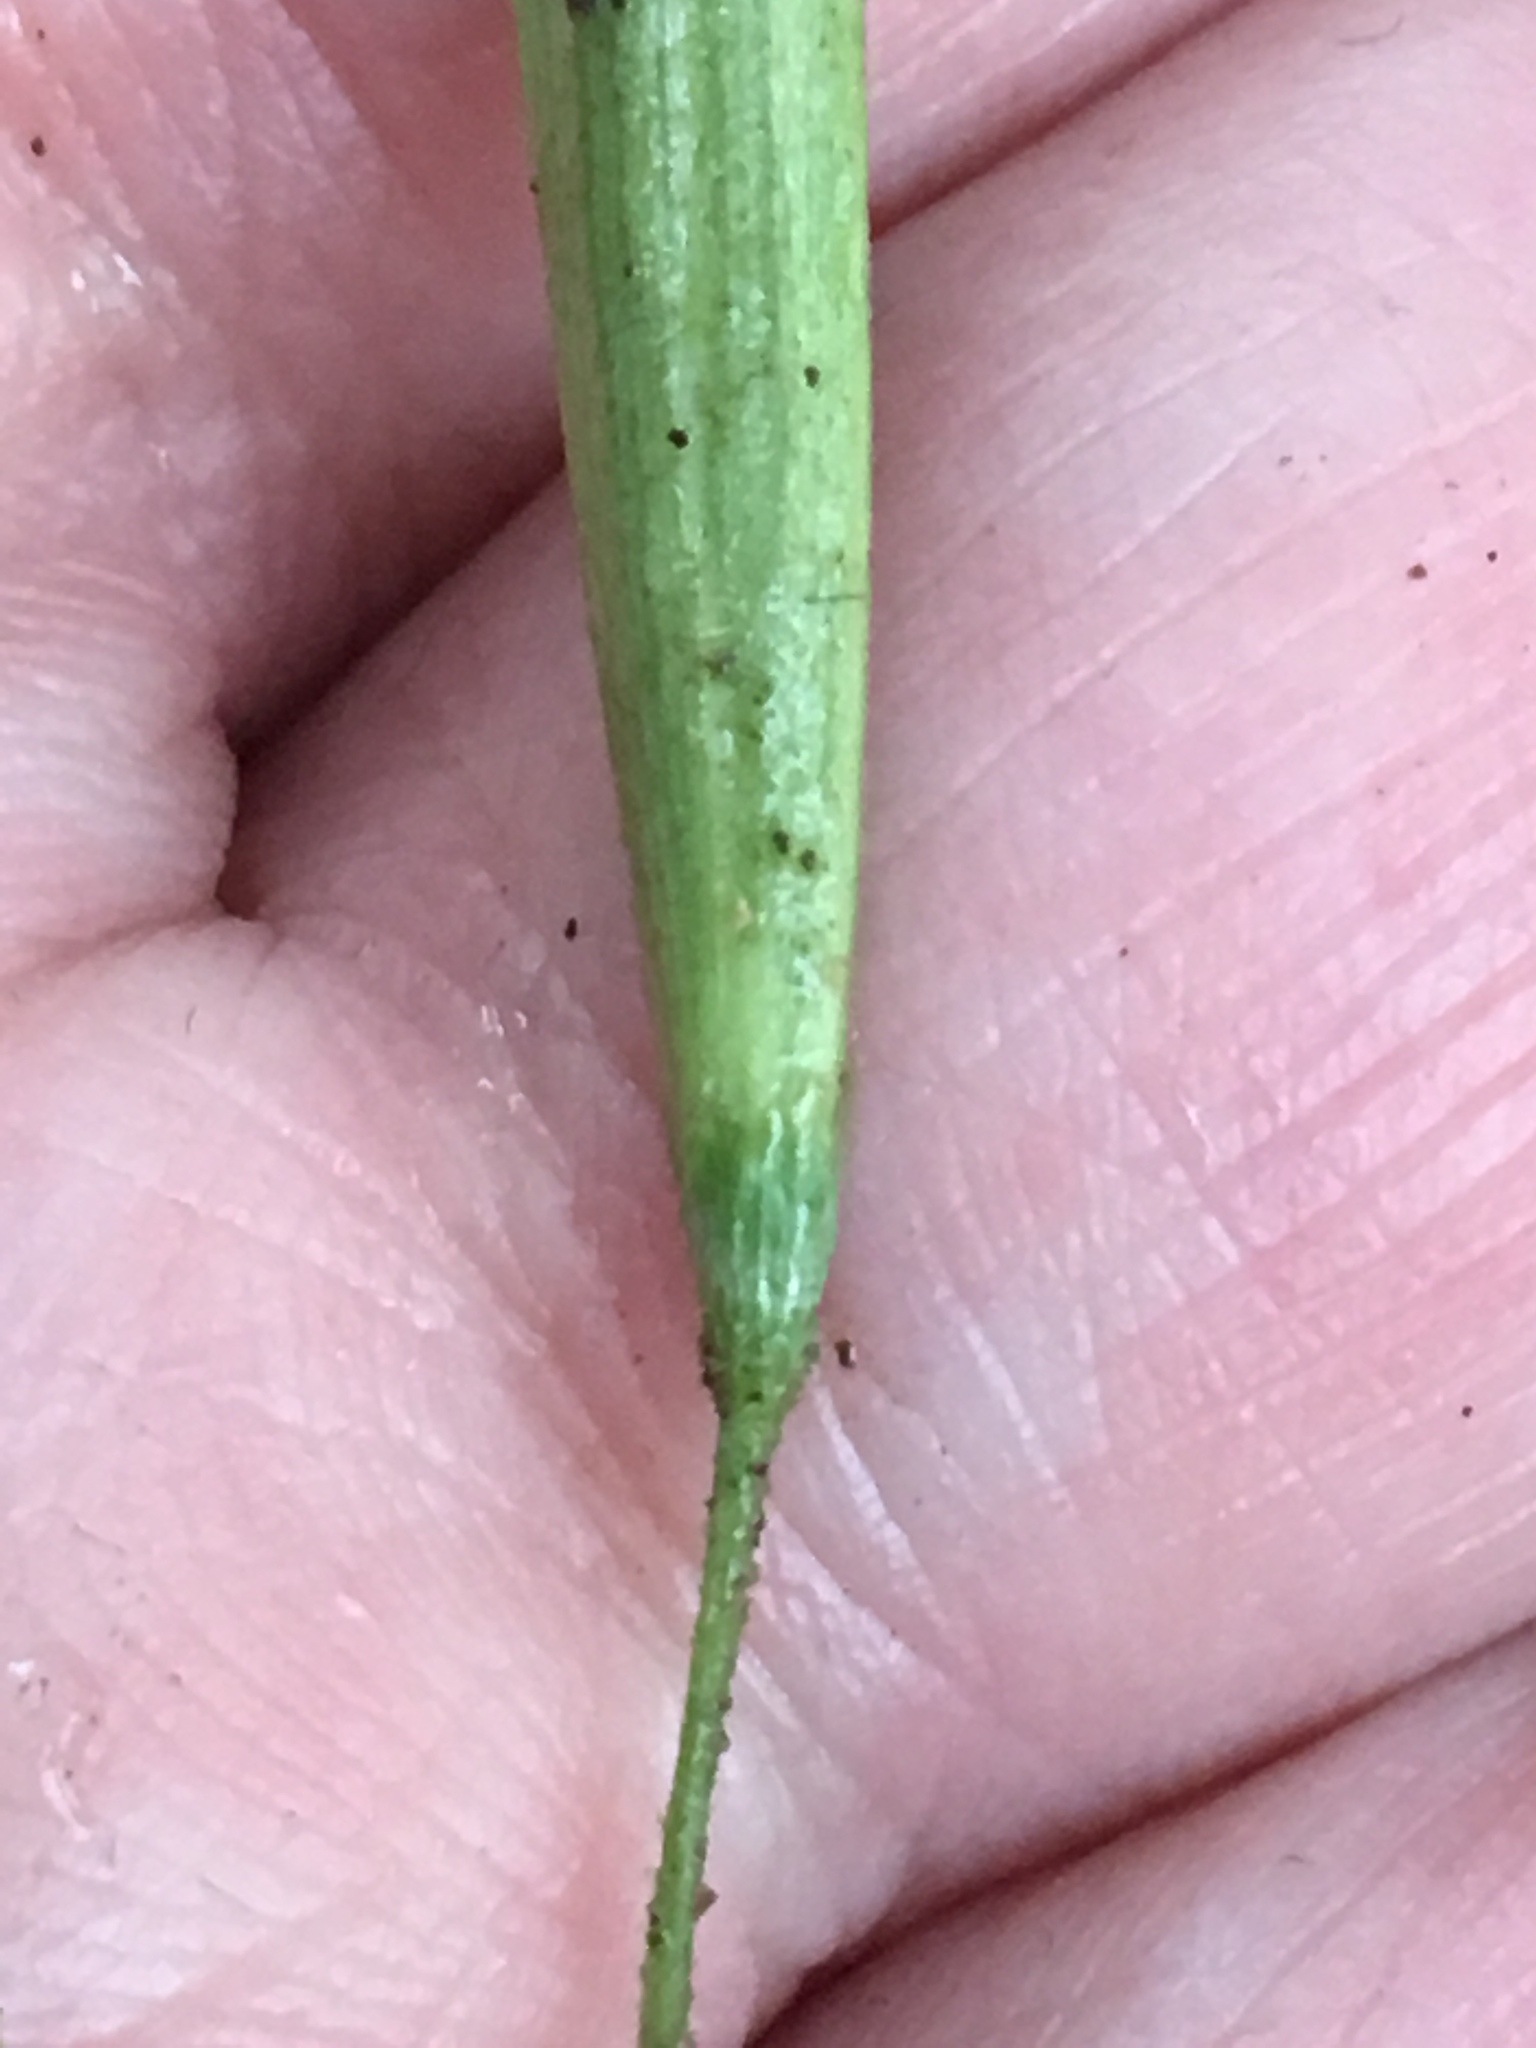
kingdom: Plantae
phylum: Tracheophyta
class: Magnoliopsida
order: Lamiales
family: Oleaceae
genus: Fraxinus
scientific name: Fraxinus profunda
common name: Pumpkin ash
